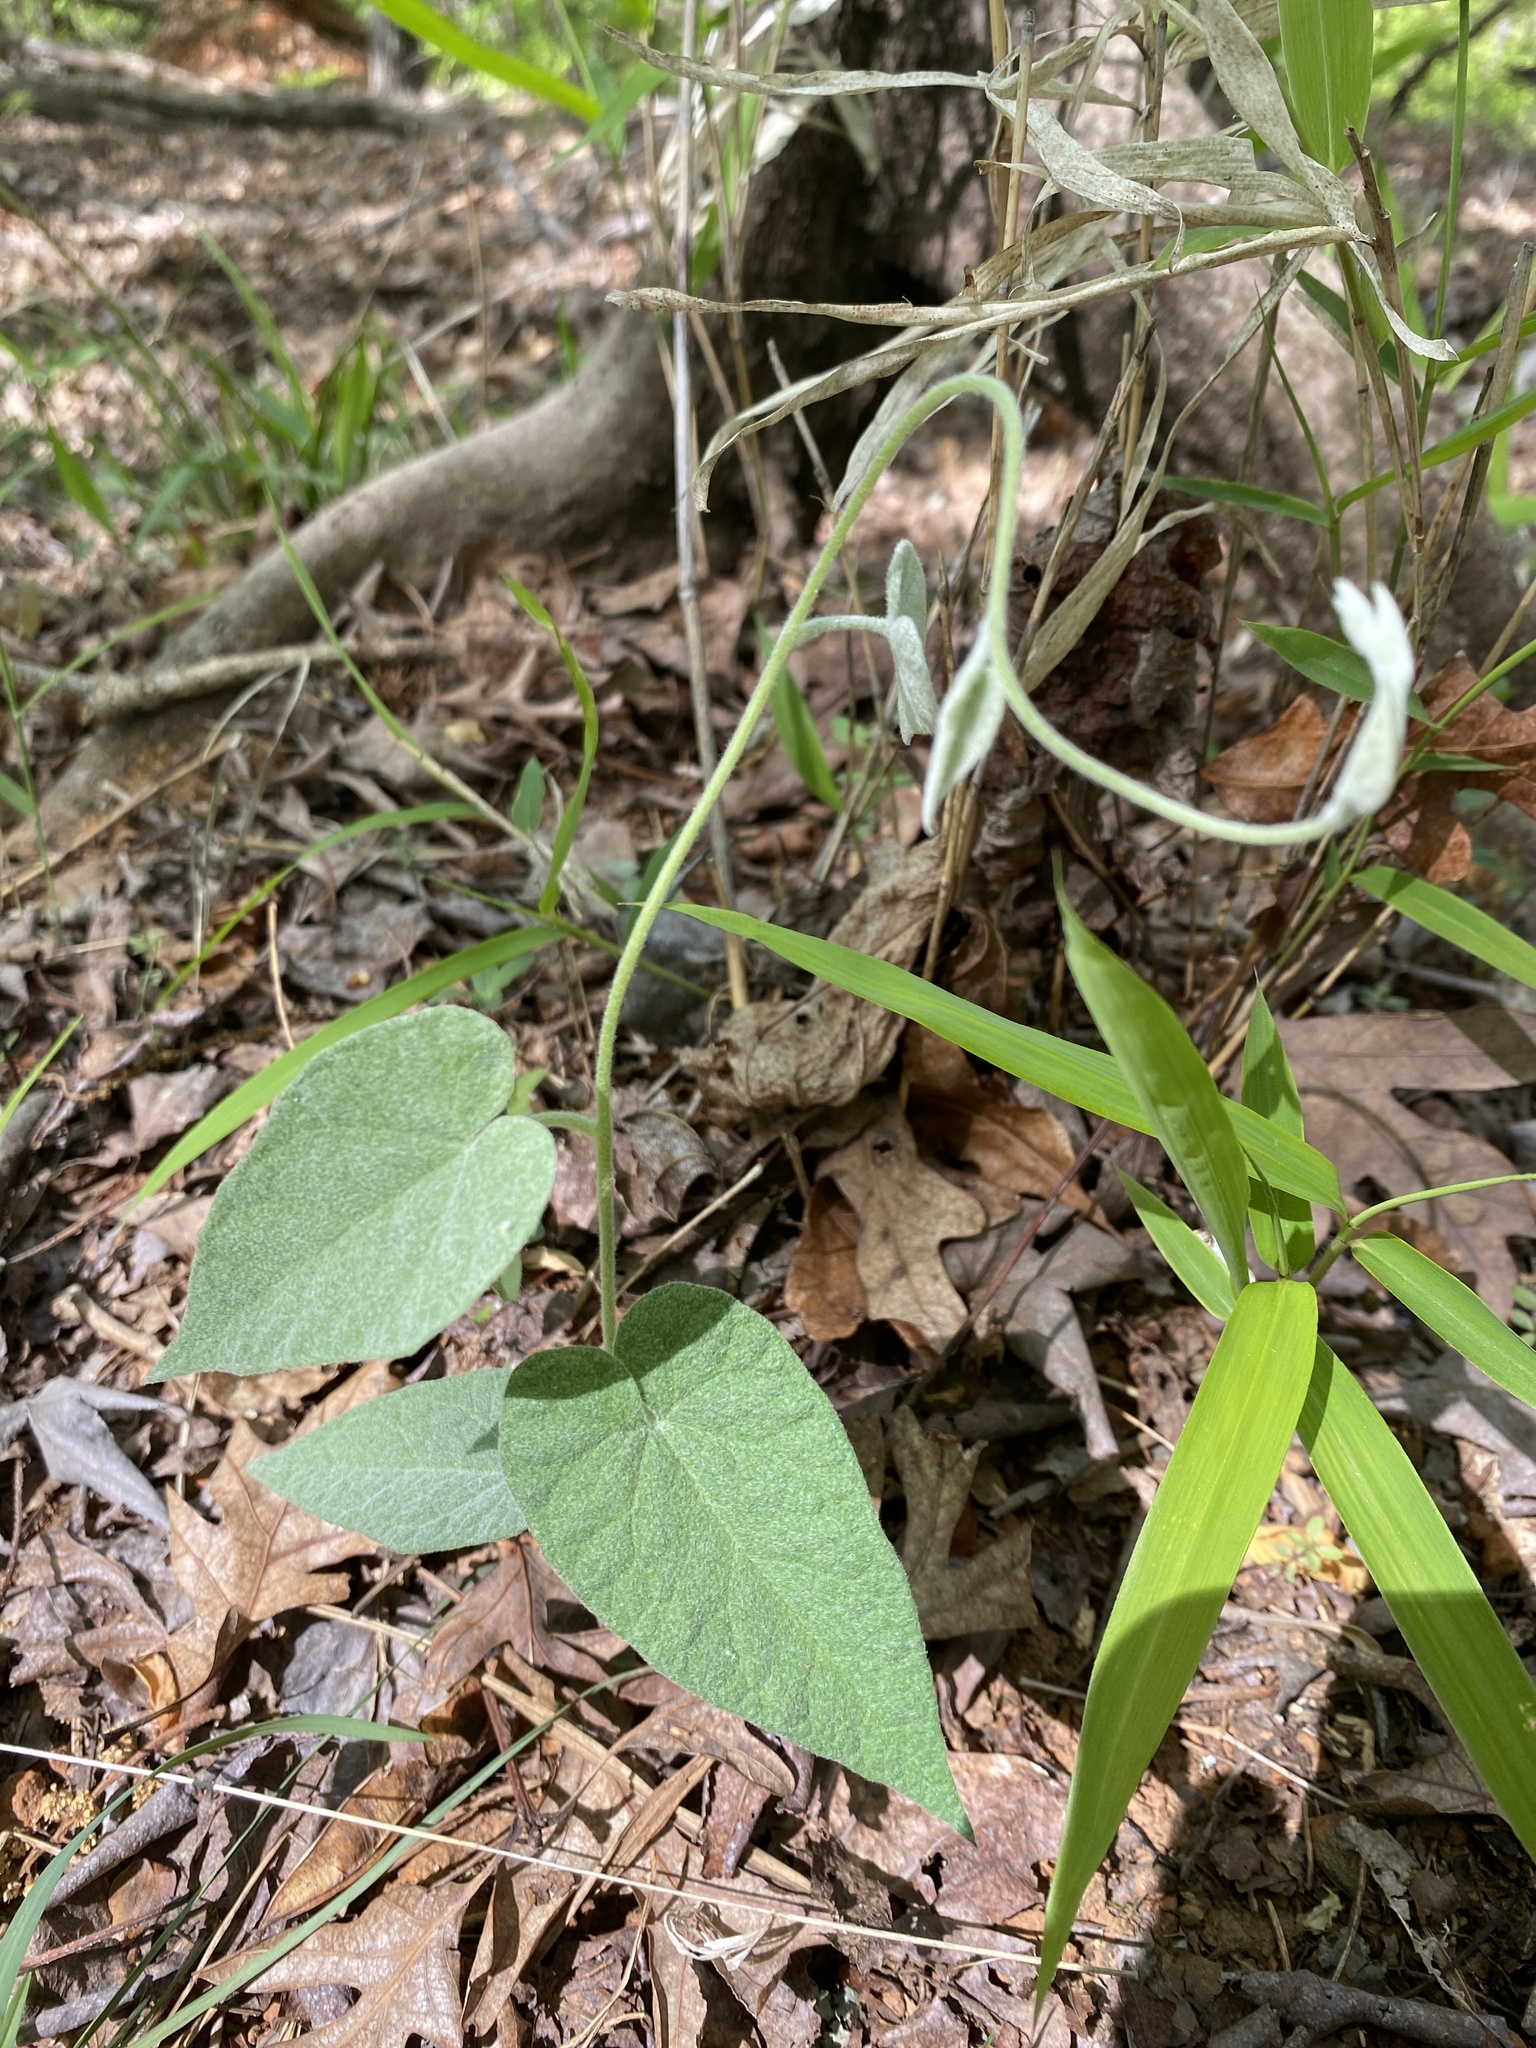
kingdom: Plantae
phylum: Tracheophyta
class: Magnoliopsida
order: Solanales
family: Convolvulaceae
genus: Calystegia
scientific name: Calystegia catesbeiana
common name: Catesby's false bindweed
